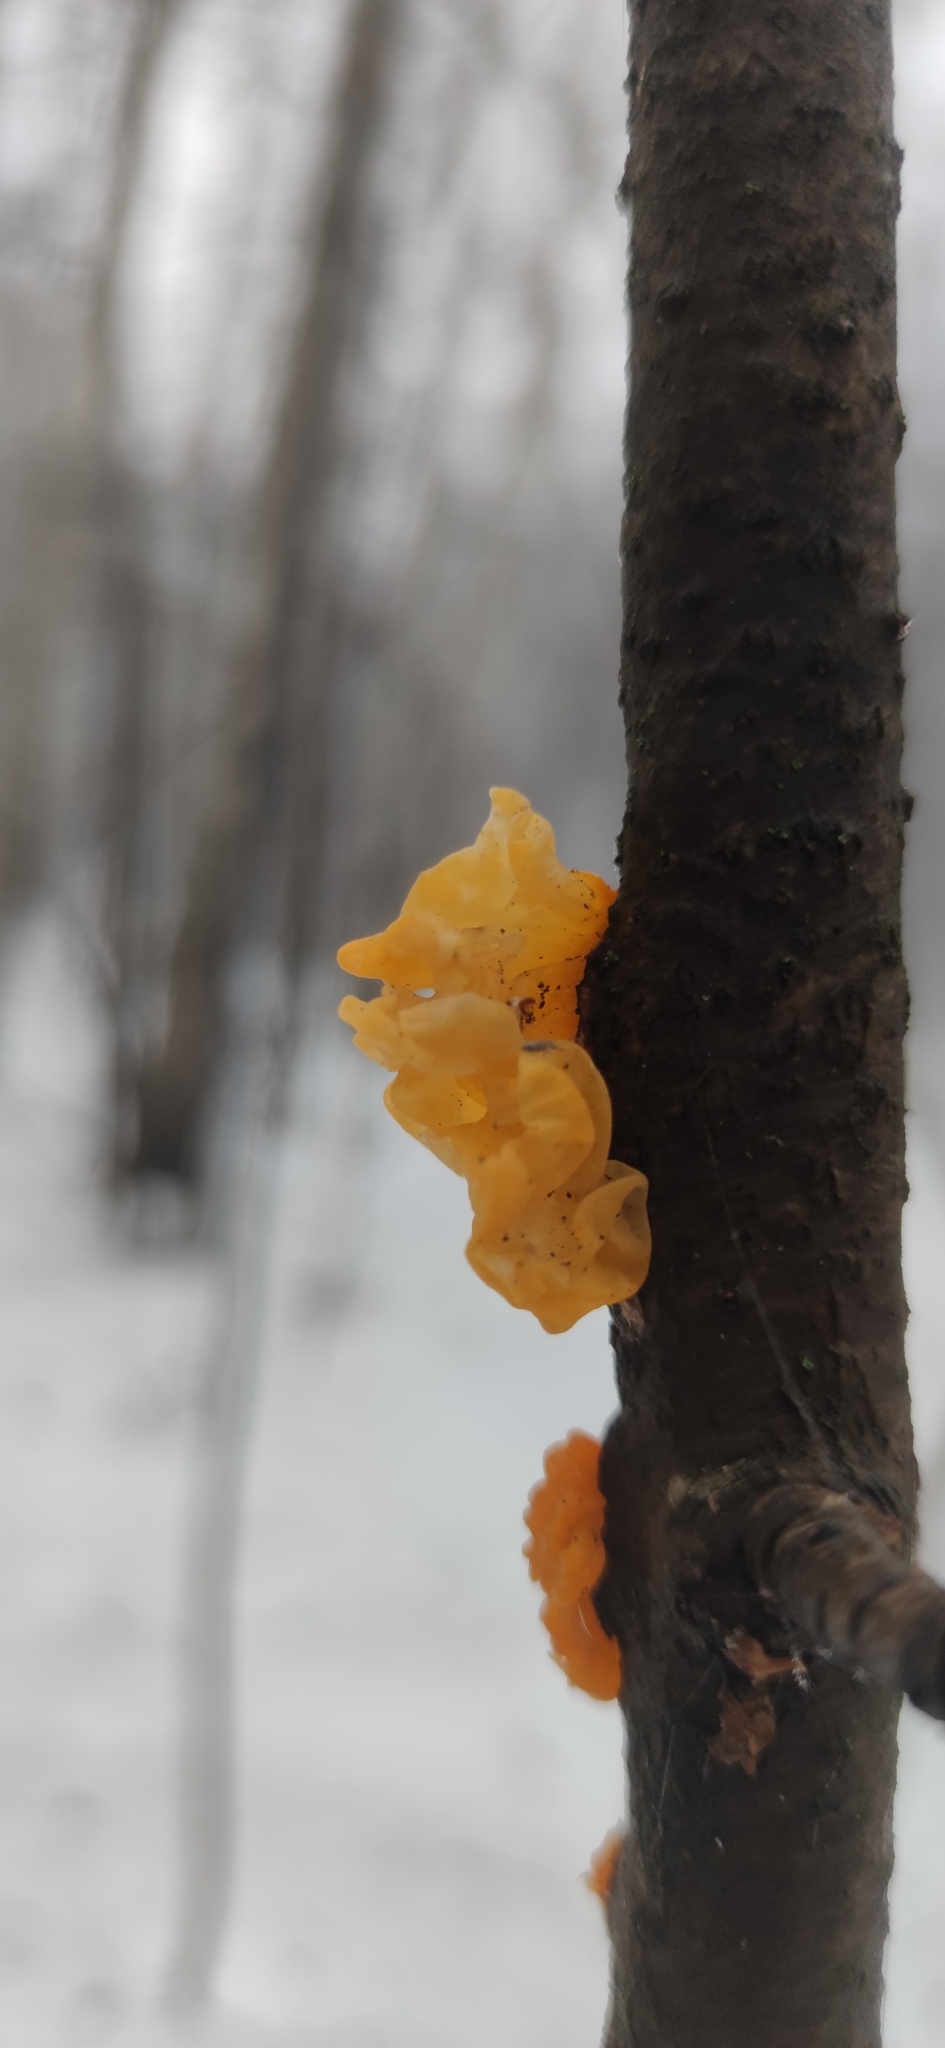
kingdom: Fungi
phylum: Basidiomycota
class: Tremellomycetes
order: Tremellales
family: Tremellaceae
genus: Tremella
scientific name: Tremella mesenterica
